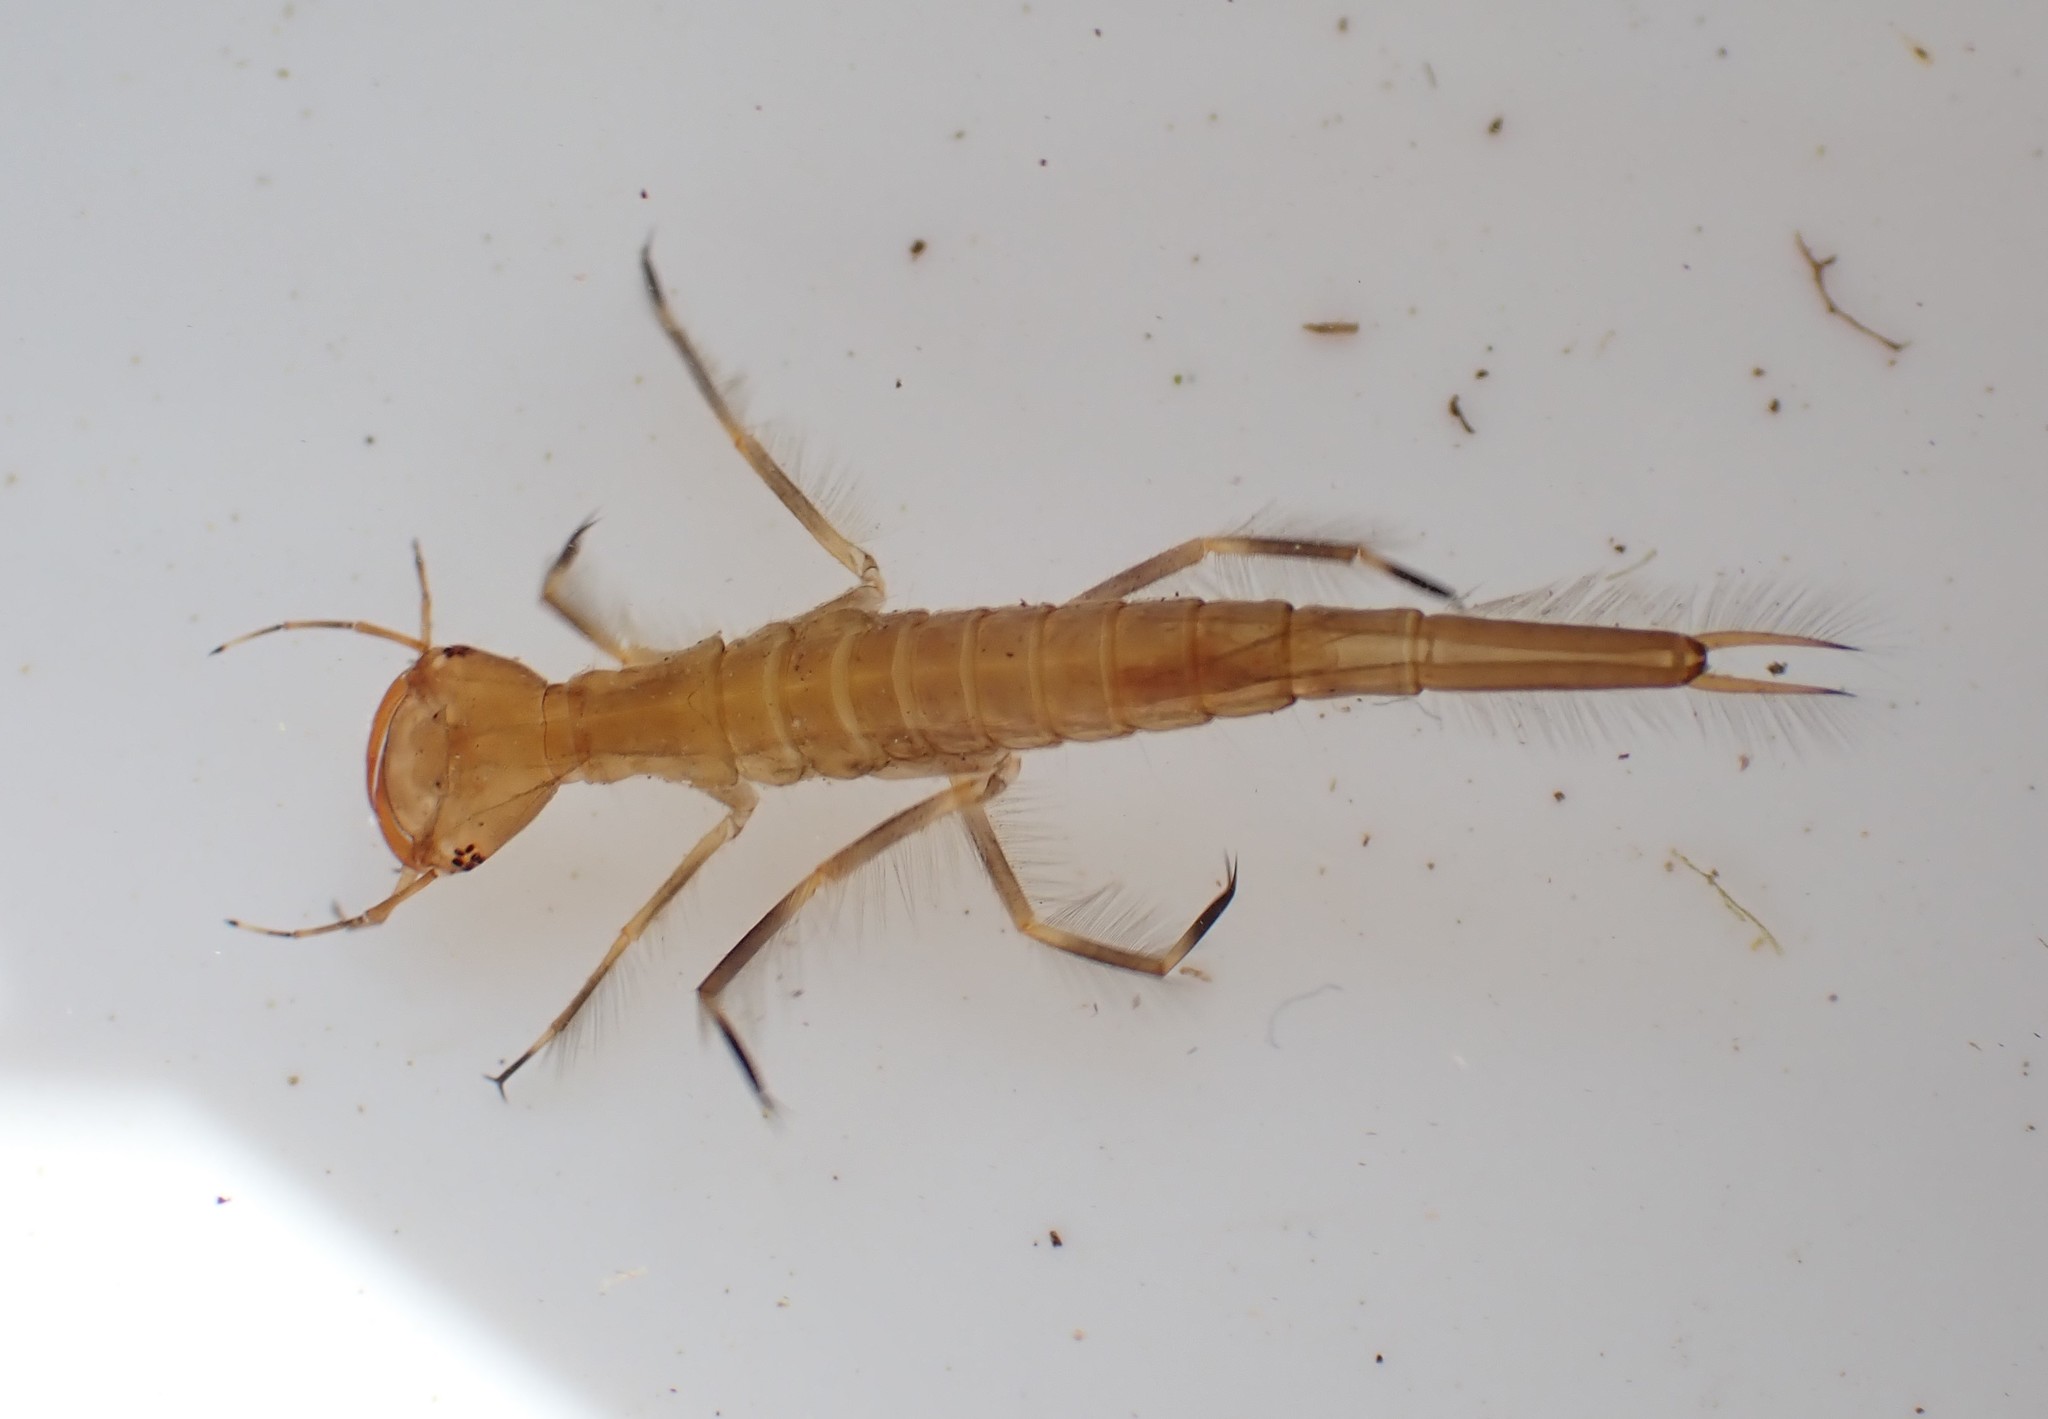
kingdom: Animalia
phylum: Arthropoda
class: Insecta
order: Coleoptera
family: Dytiscidae
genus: Dytiscus
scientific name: Dytiscus
